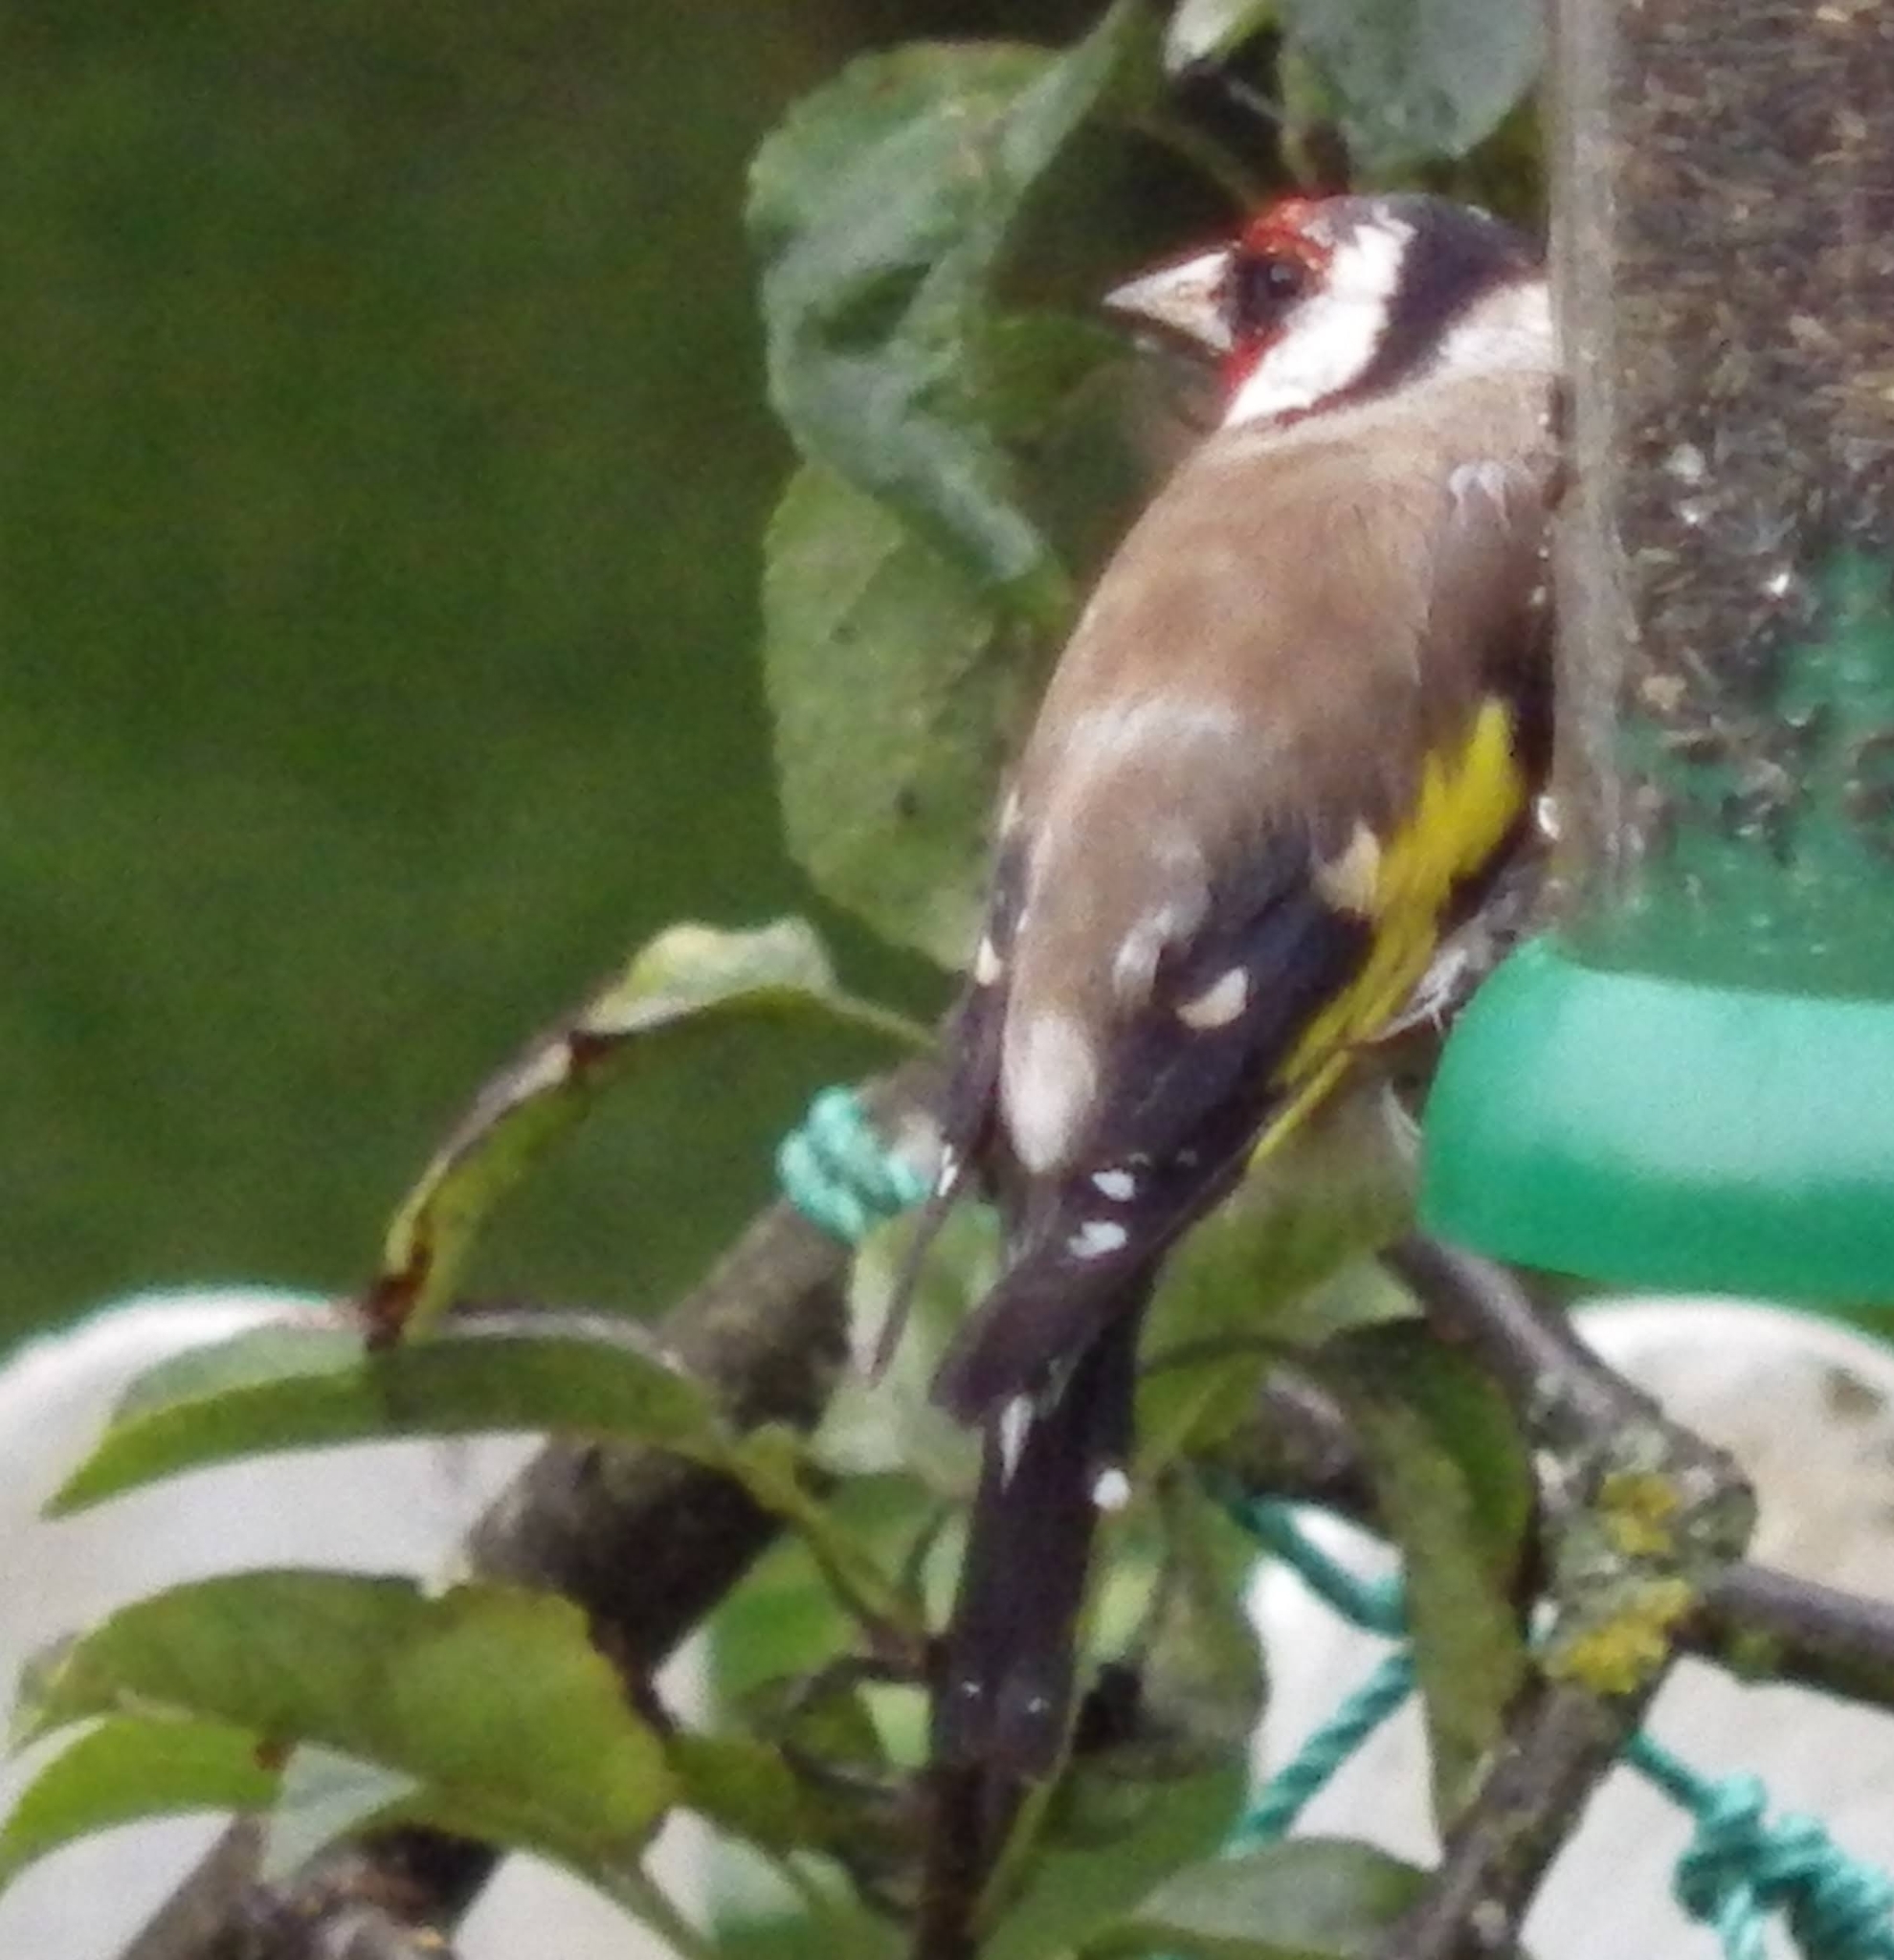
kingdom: Animalia
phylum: Chordata
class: Aves
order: Passeriformes
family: Fringillidae
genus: Carduelis
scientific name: Carduelis carduelis
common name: European goldfinch
